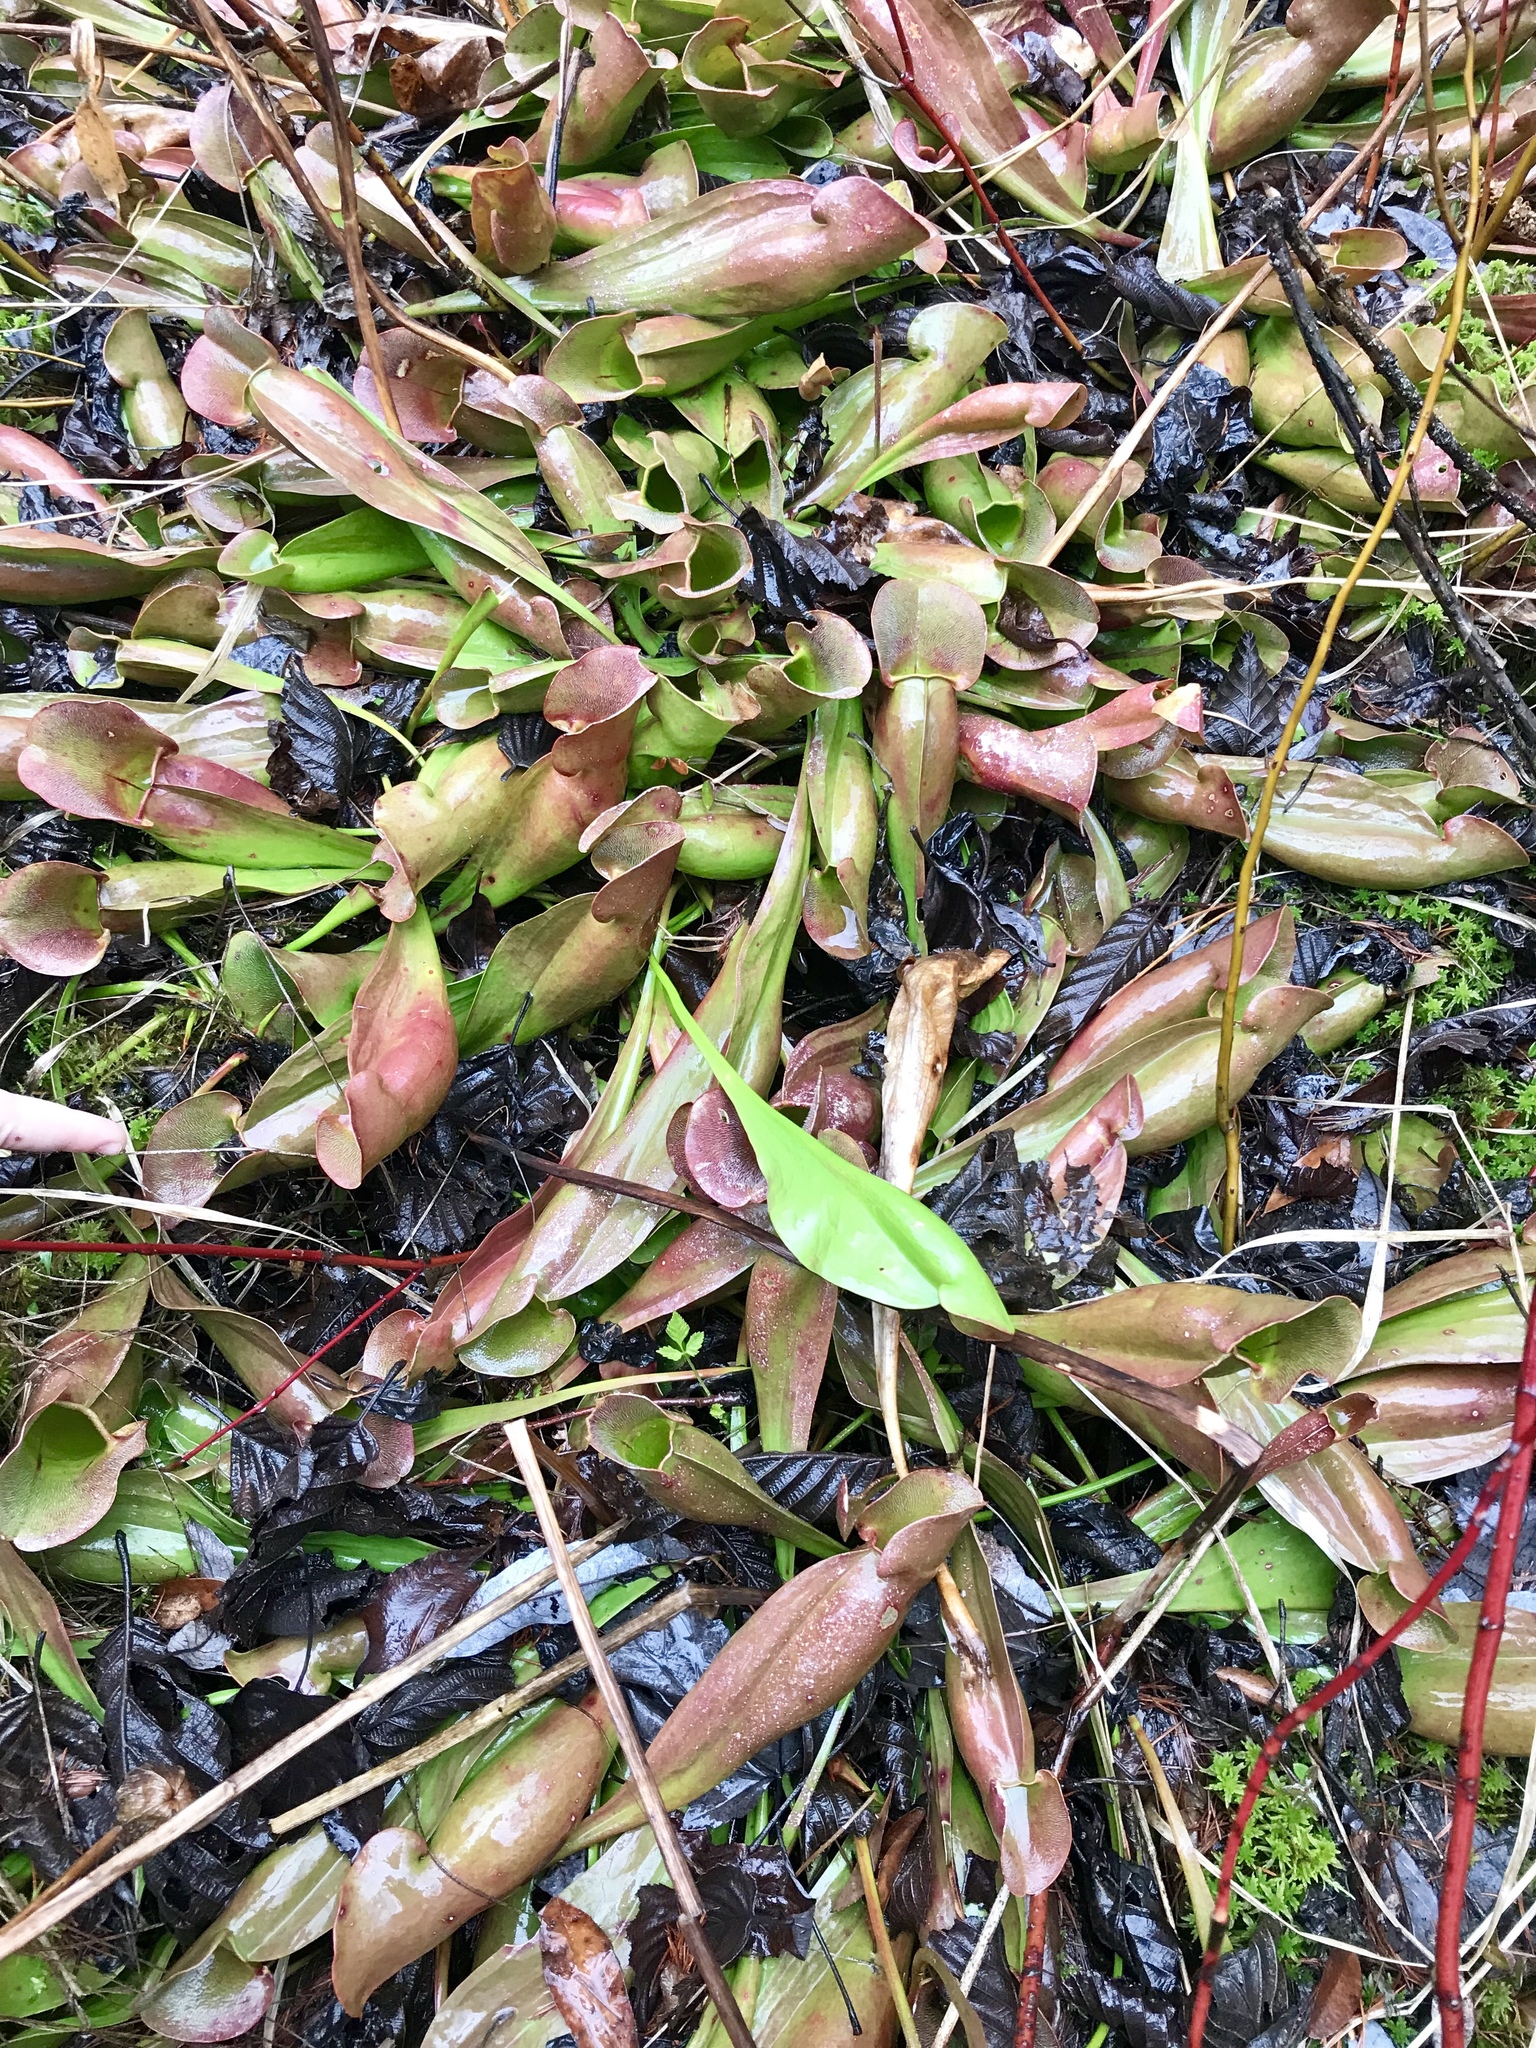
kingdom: Plantae
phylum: Tracheophyta
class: Magnoliopsida
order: Ericales
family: Sarraceniaceae
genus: Sarracenia
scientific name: Sarracenia purpurea
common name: Pitcherplant
